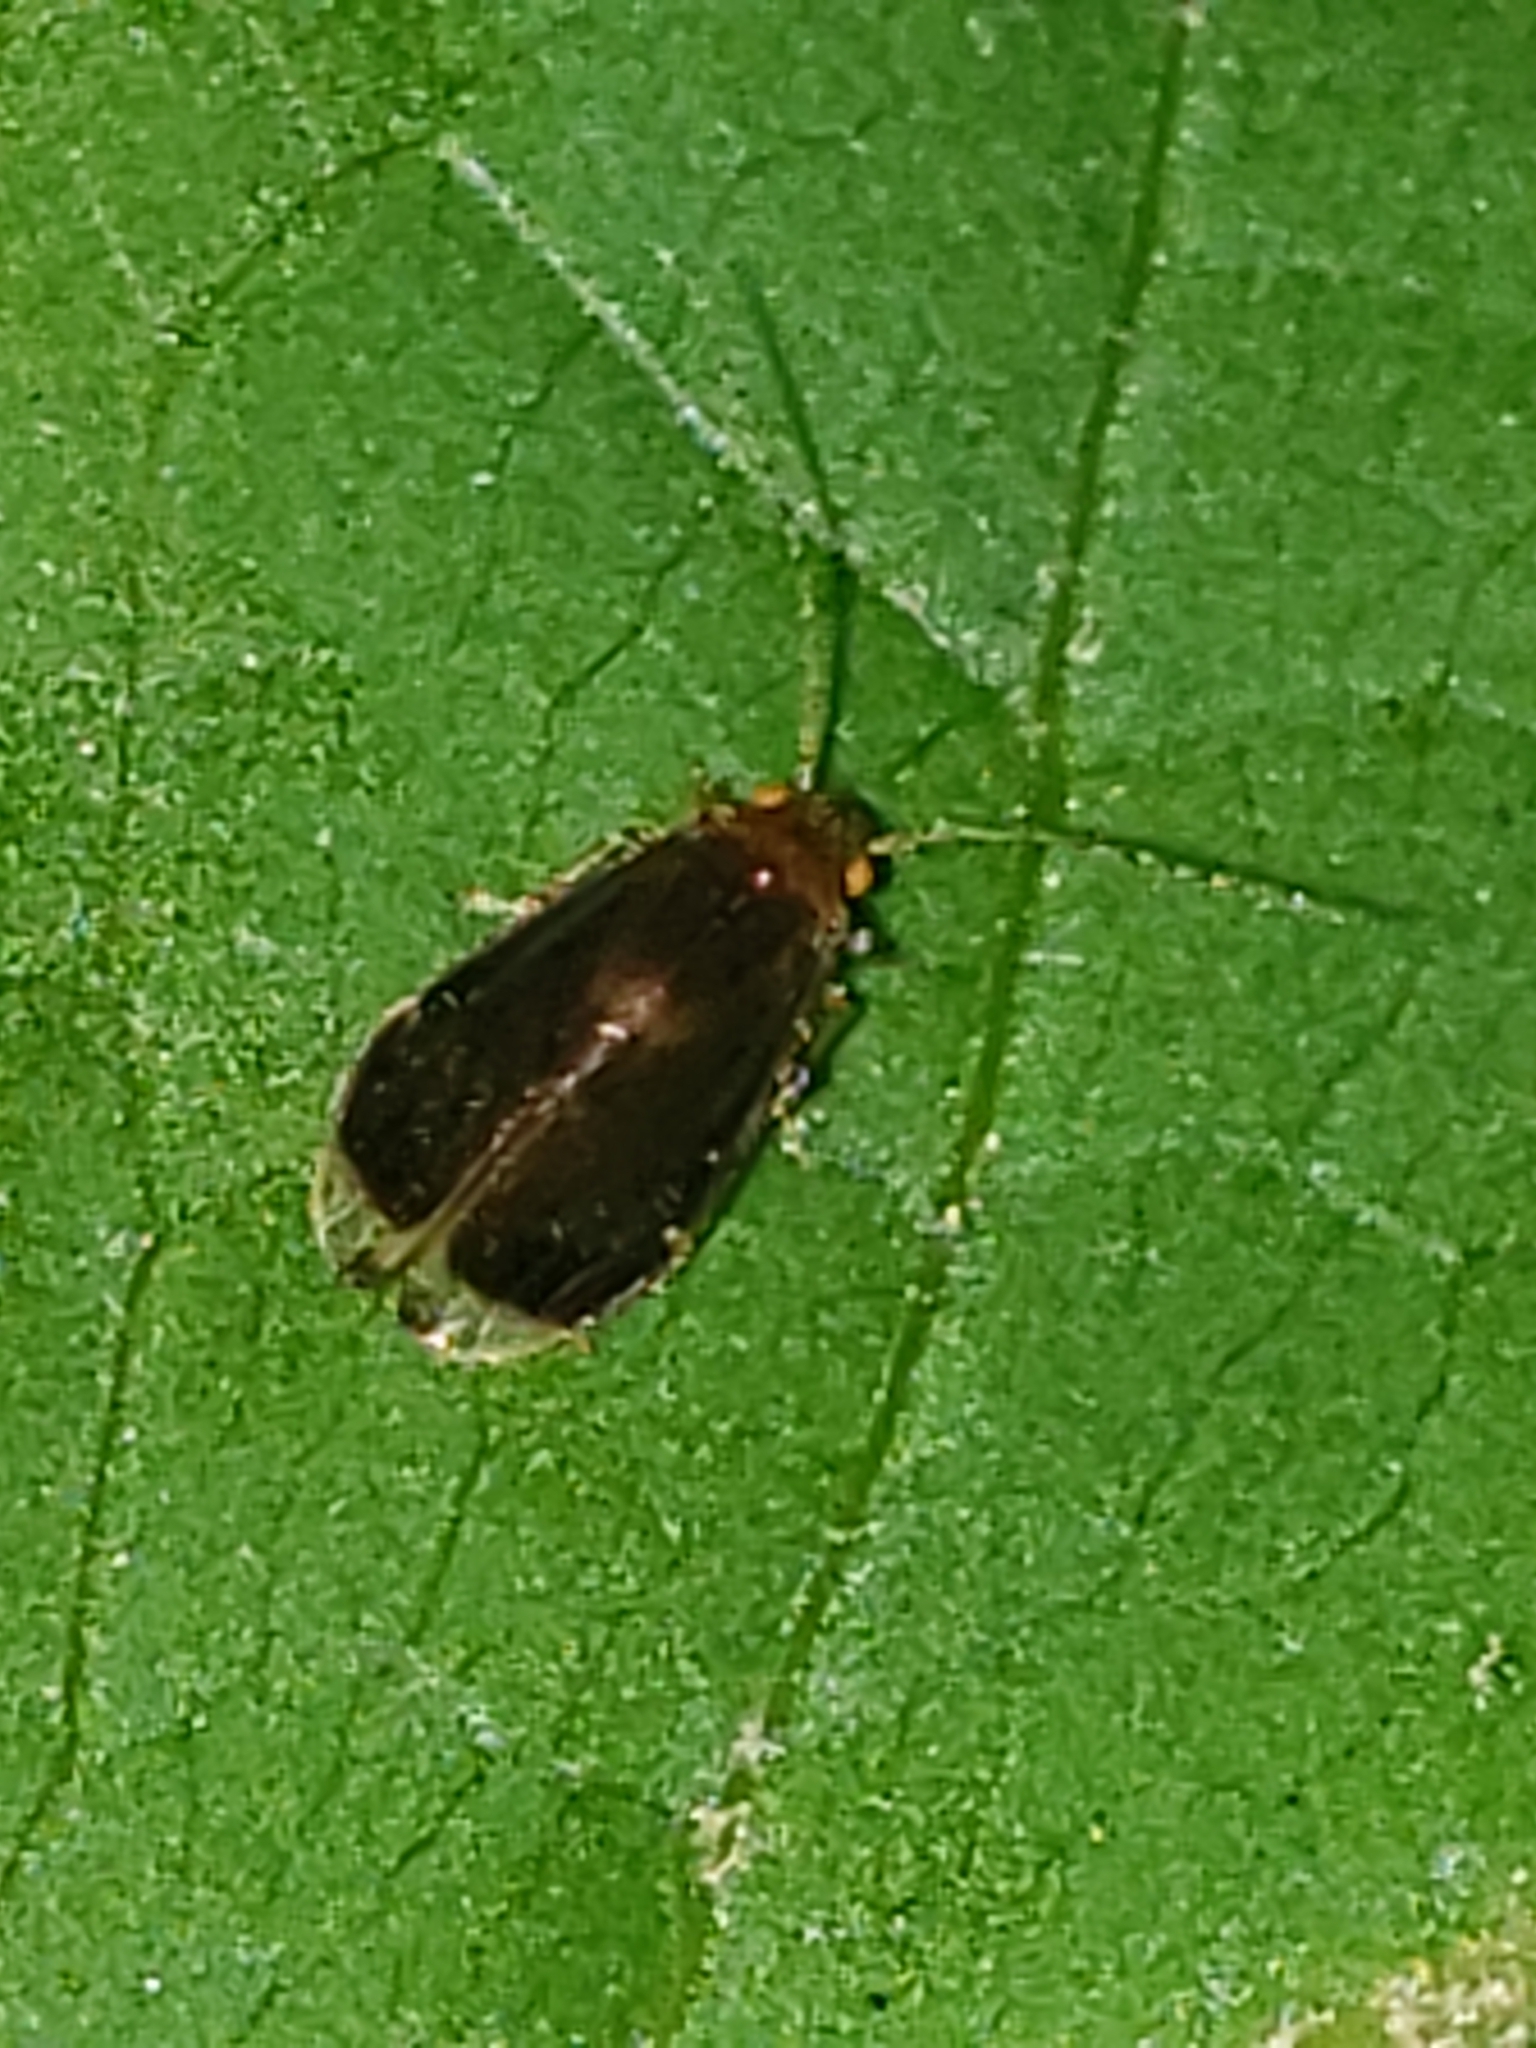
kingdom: Animalia
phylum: Arthropoda
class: Insecta
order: Psocodea
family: Amphipsocidae
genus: Polypsocus
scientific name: Polypsocus corruptus
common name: Corrupt barklouse
